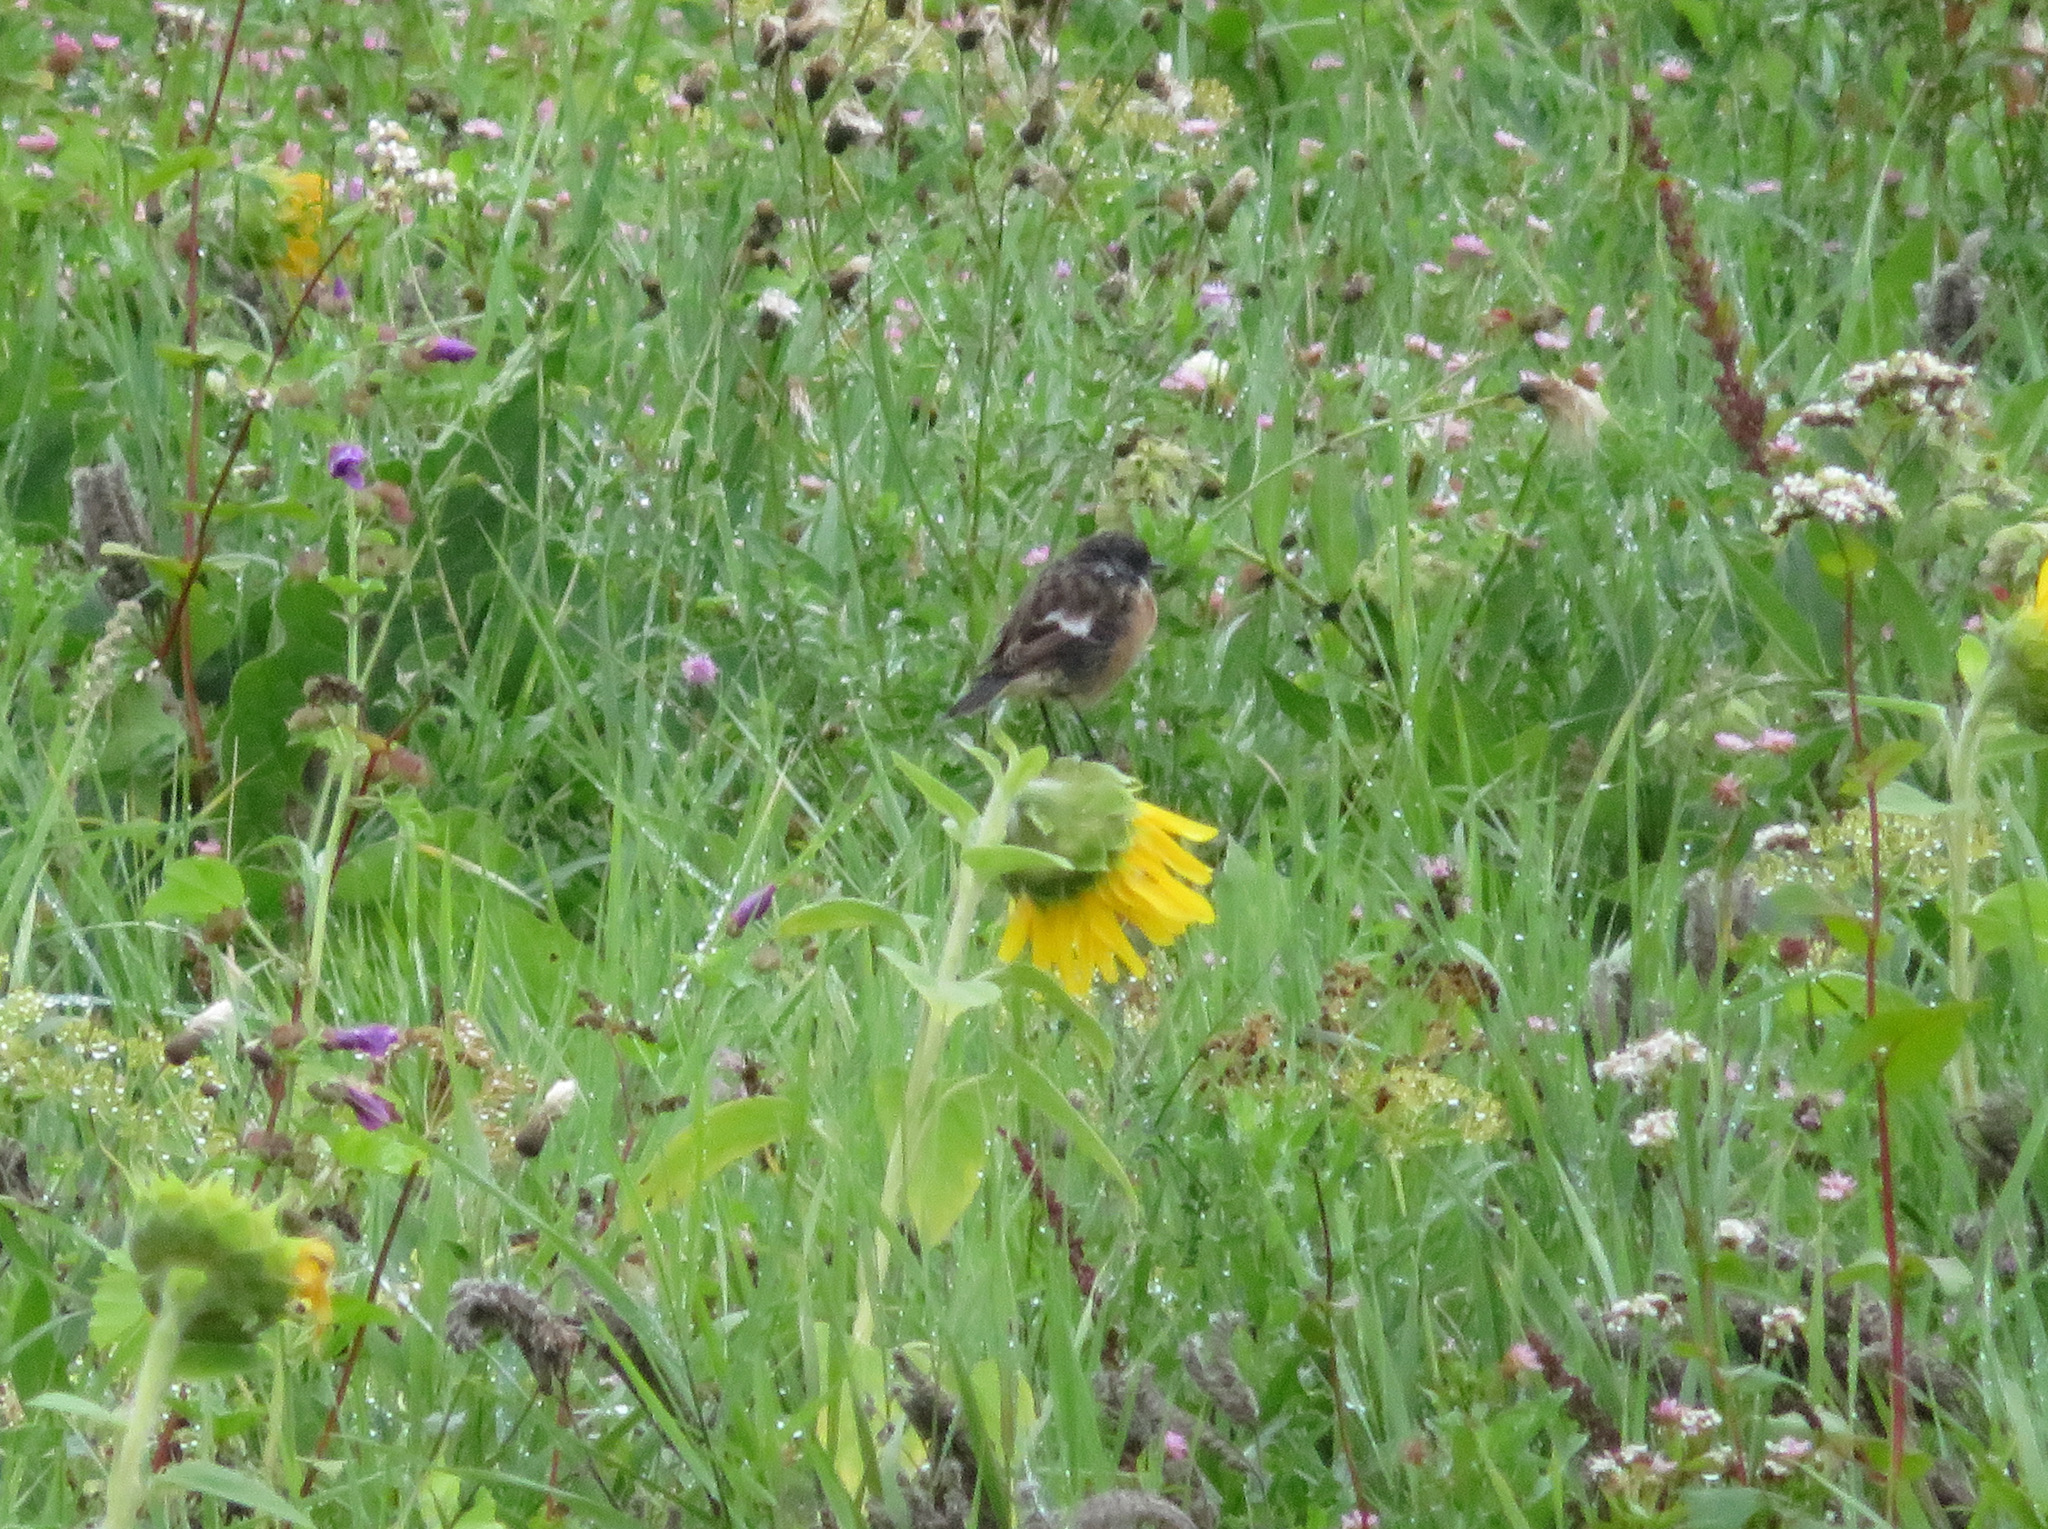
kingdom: Animalia
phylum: Chordata
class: Aves
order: Passeriformes
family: Muscicapidae
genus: Saxicola
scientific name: Saxicola rubicola
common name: European stonechat
